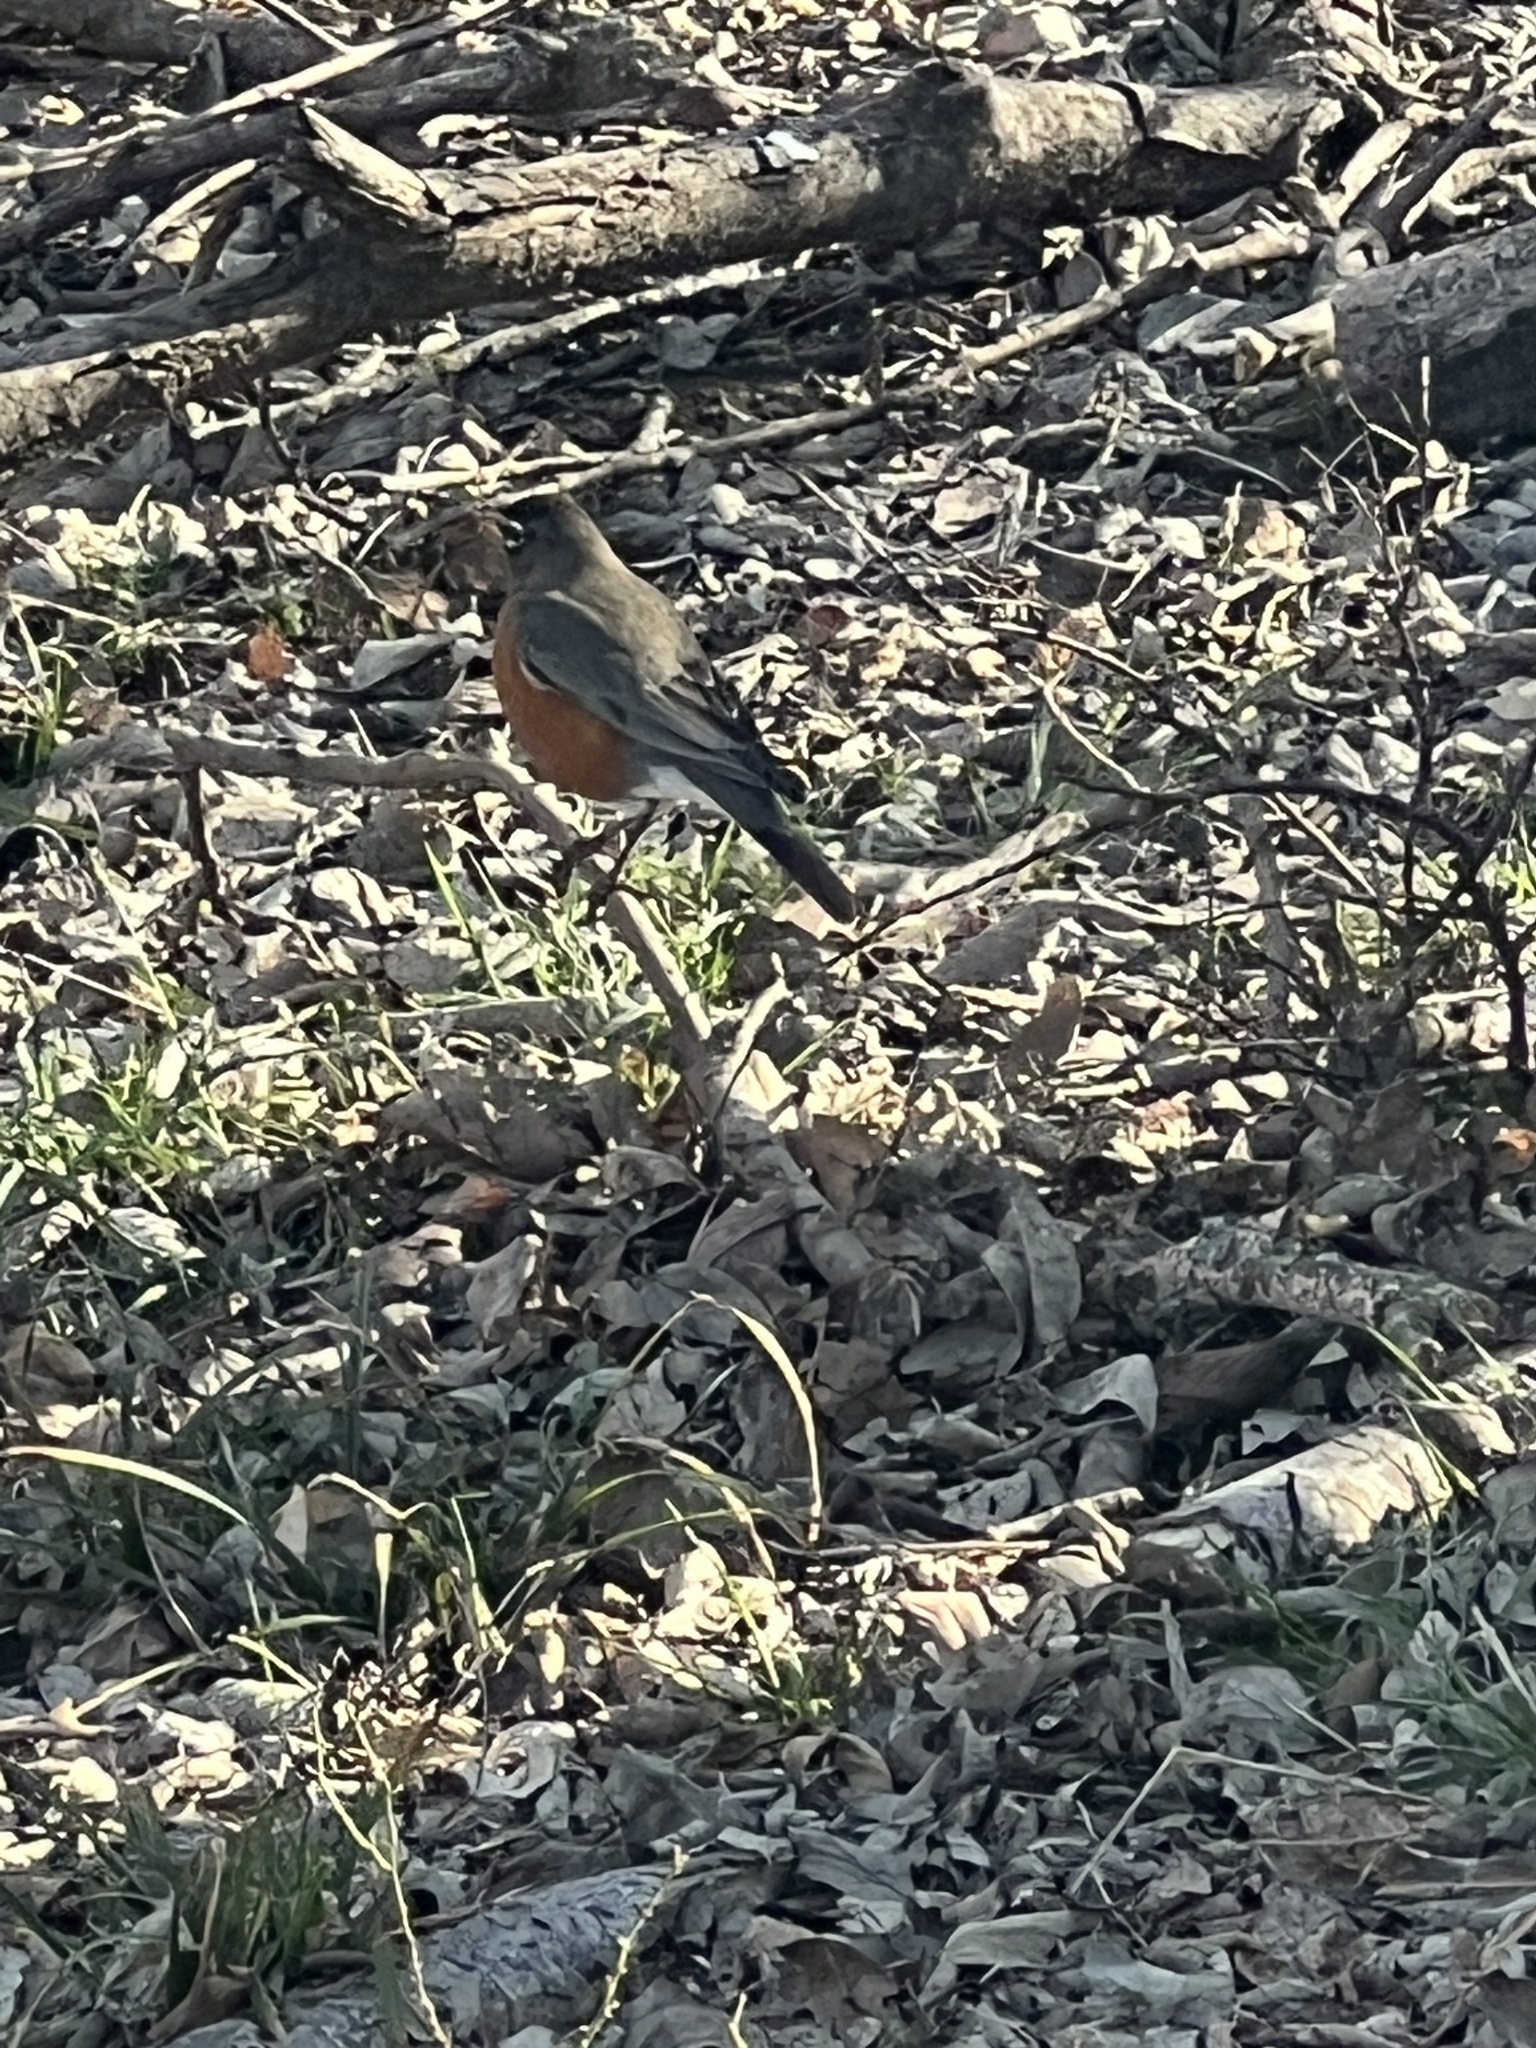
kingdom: Animalia
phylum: Chordata
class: Aves
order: Passeriformes
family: Turdidae
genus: Turdus
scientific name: Turdus migratorius
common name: American robin
